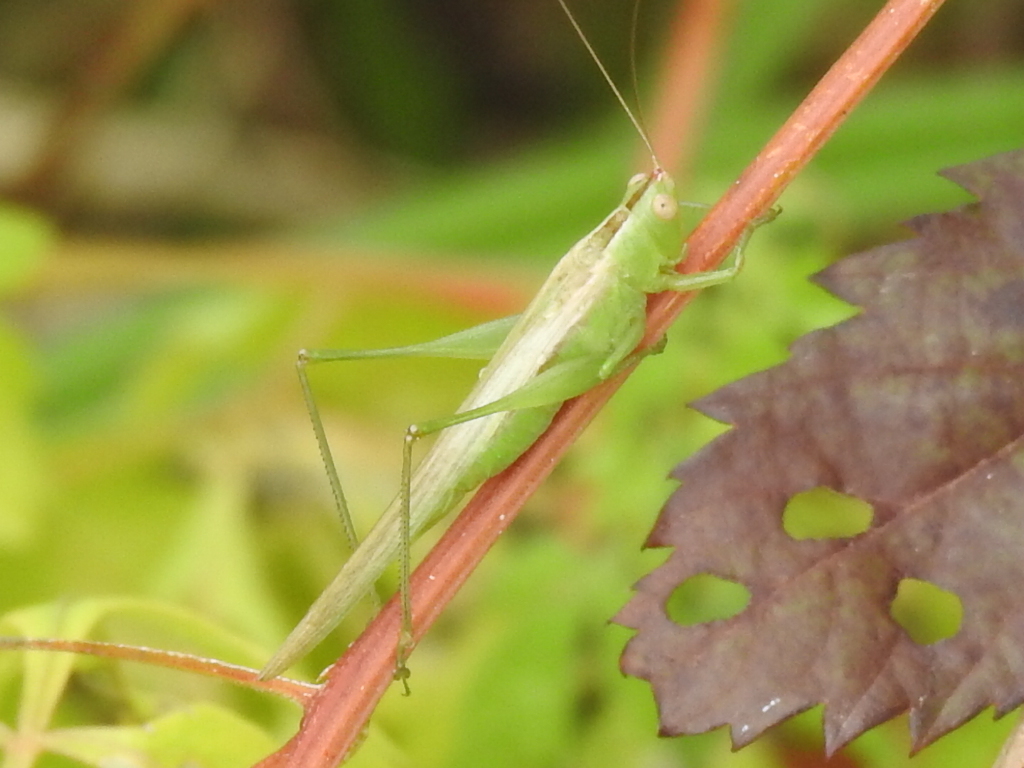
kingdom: Animalia
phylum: Arthropoda
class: Insecta
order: Orthoptera
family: Tettigoniidae
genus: Conocephalus
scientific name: Conocephalus fasciatus
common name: Slender meadow katydid
